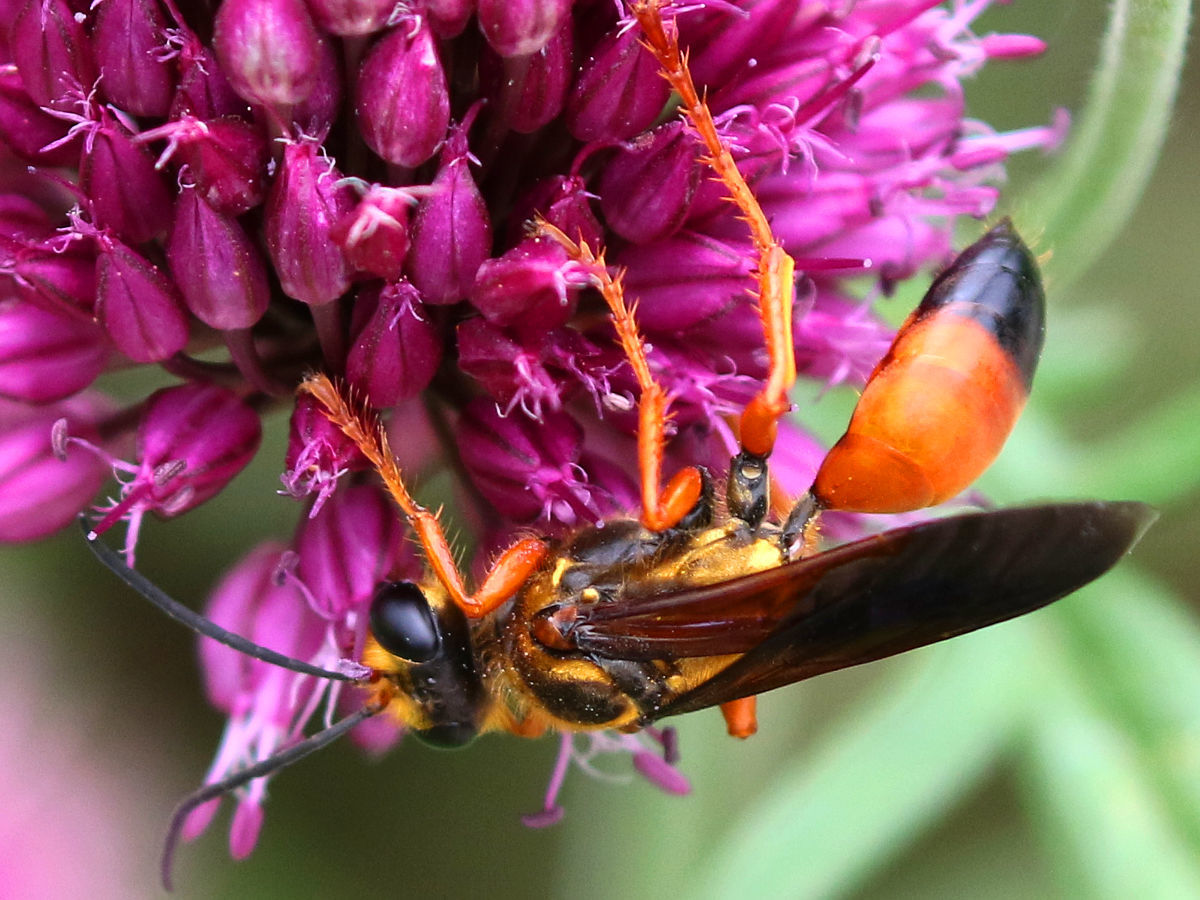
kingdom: Animalia
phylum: Arthropoda
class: Insecta
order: Hymenoptera
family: Sphecidae
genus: Sphex
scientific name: Sphex ichneumoneus
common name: Great golden digger wasp
